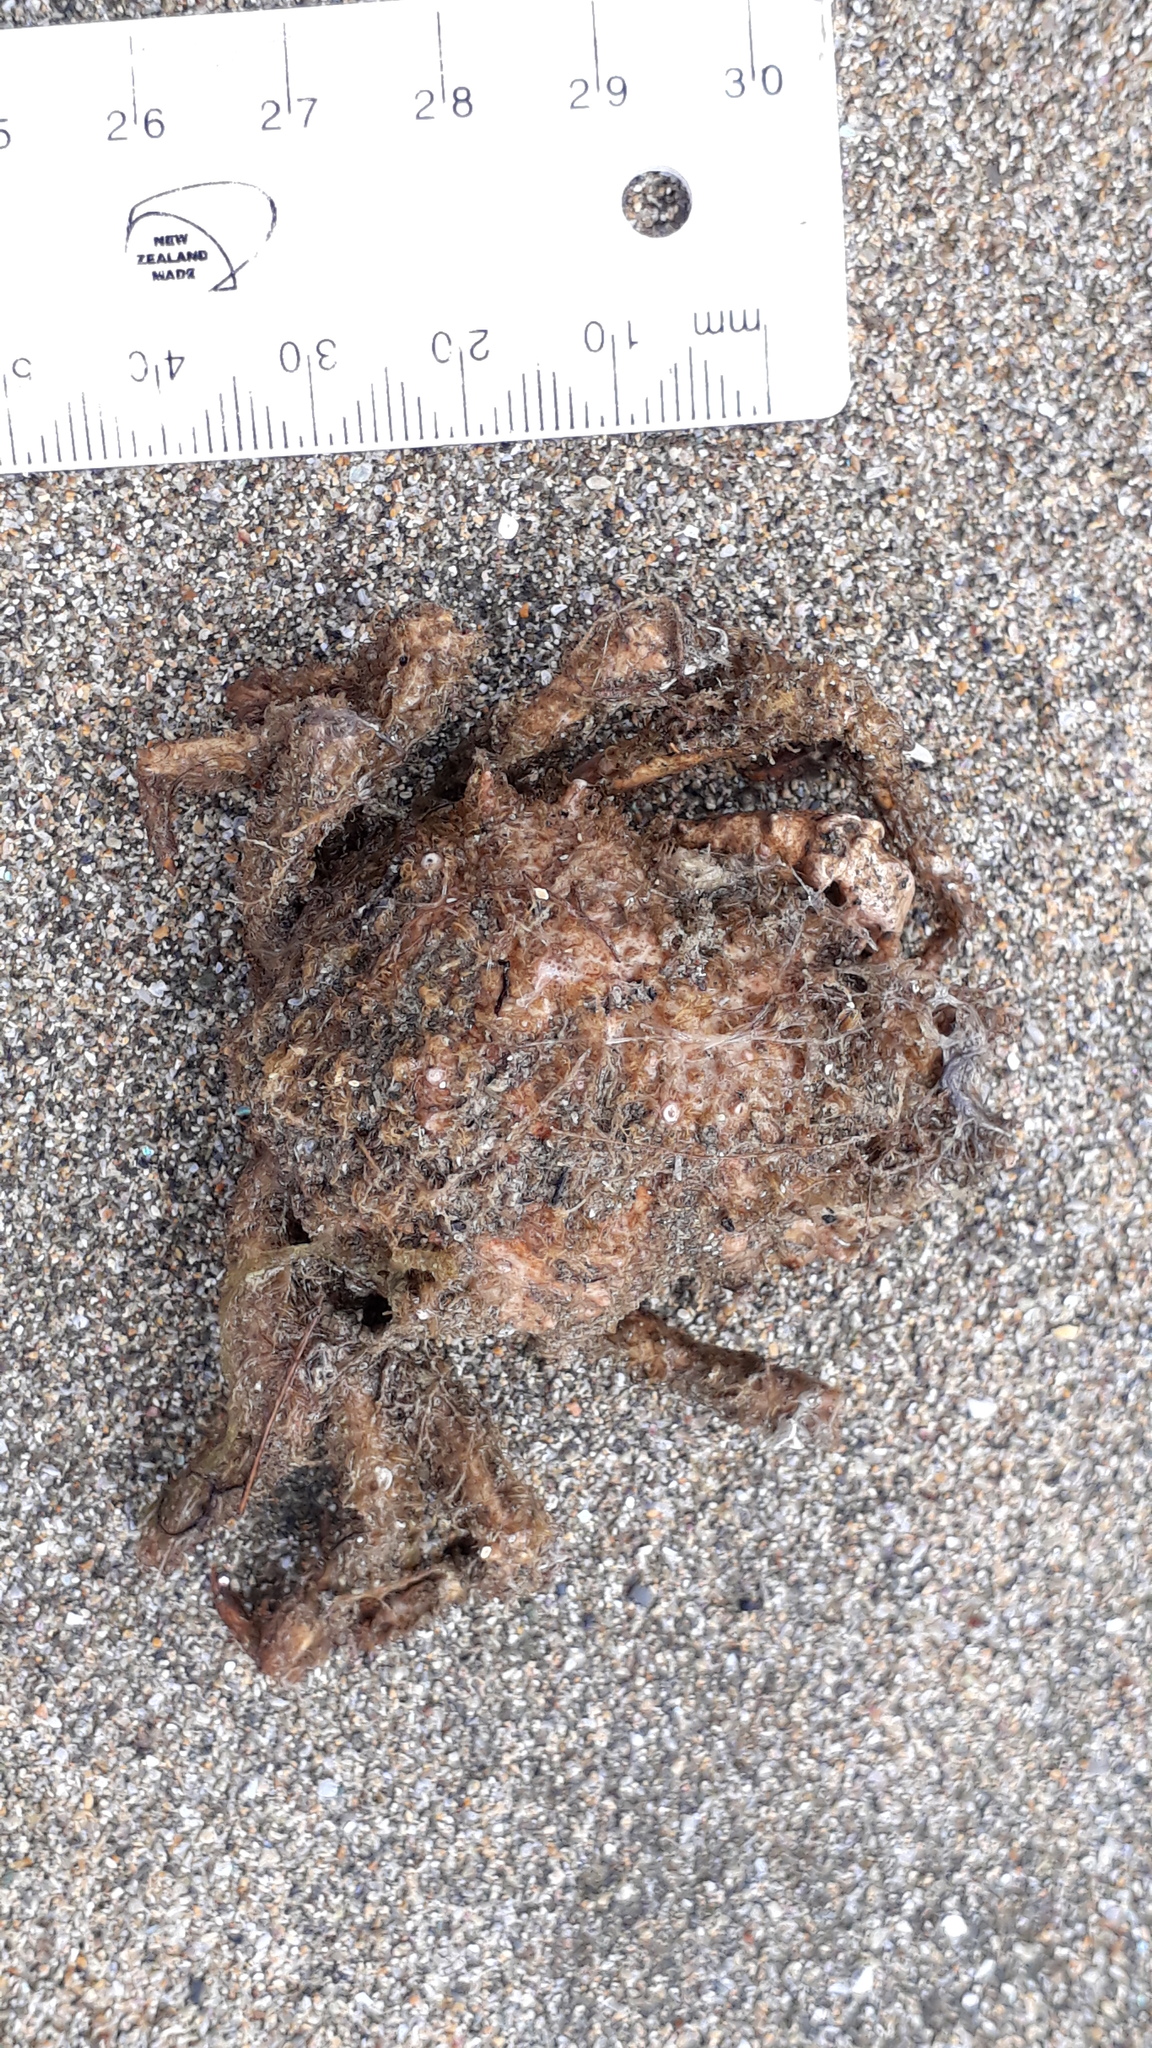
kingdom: Animalia
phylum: Arthropoda
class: Malacostraca
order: Decapoda
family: Majidae
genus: Notomithrax
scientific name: Notomithrax ursus
